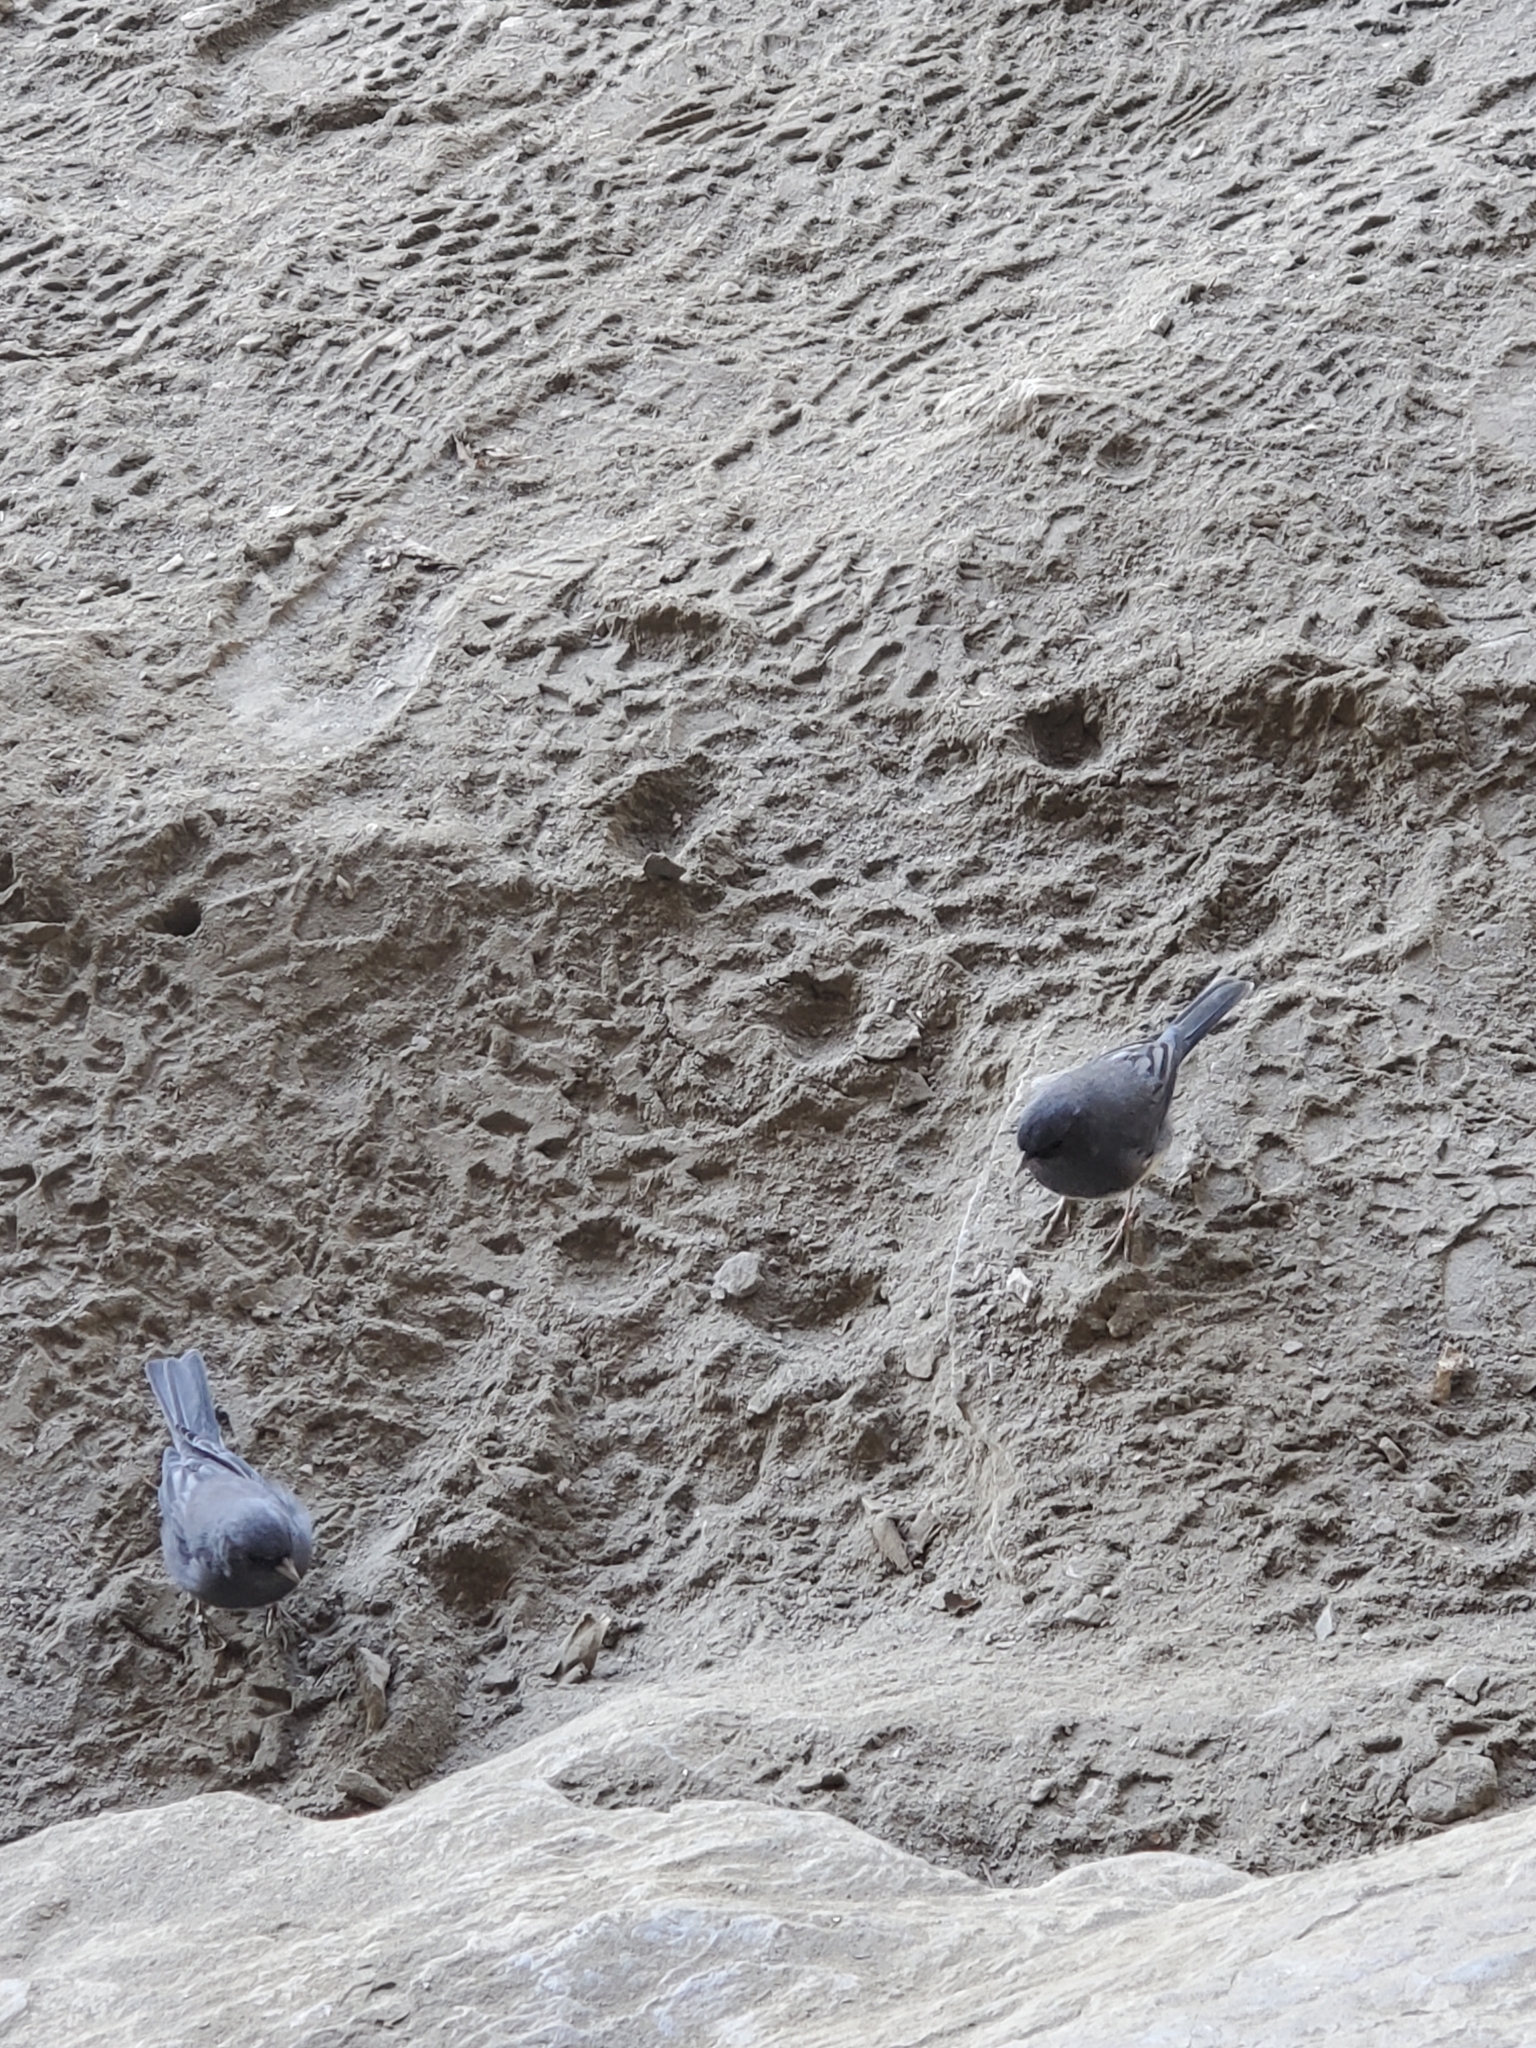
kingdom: Animalia
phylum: Chordata
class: Aves
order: Passeriformes
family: Passerellidae
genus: Junco
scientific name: Junco hyemalis
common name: Dark-eyed junco
